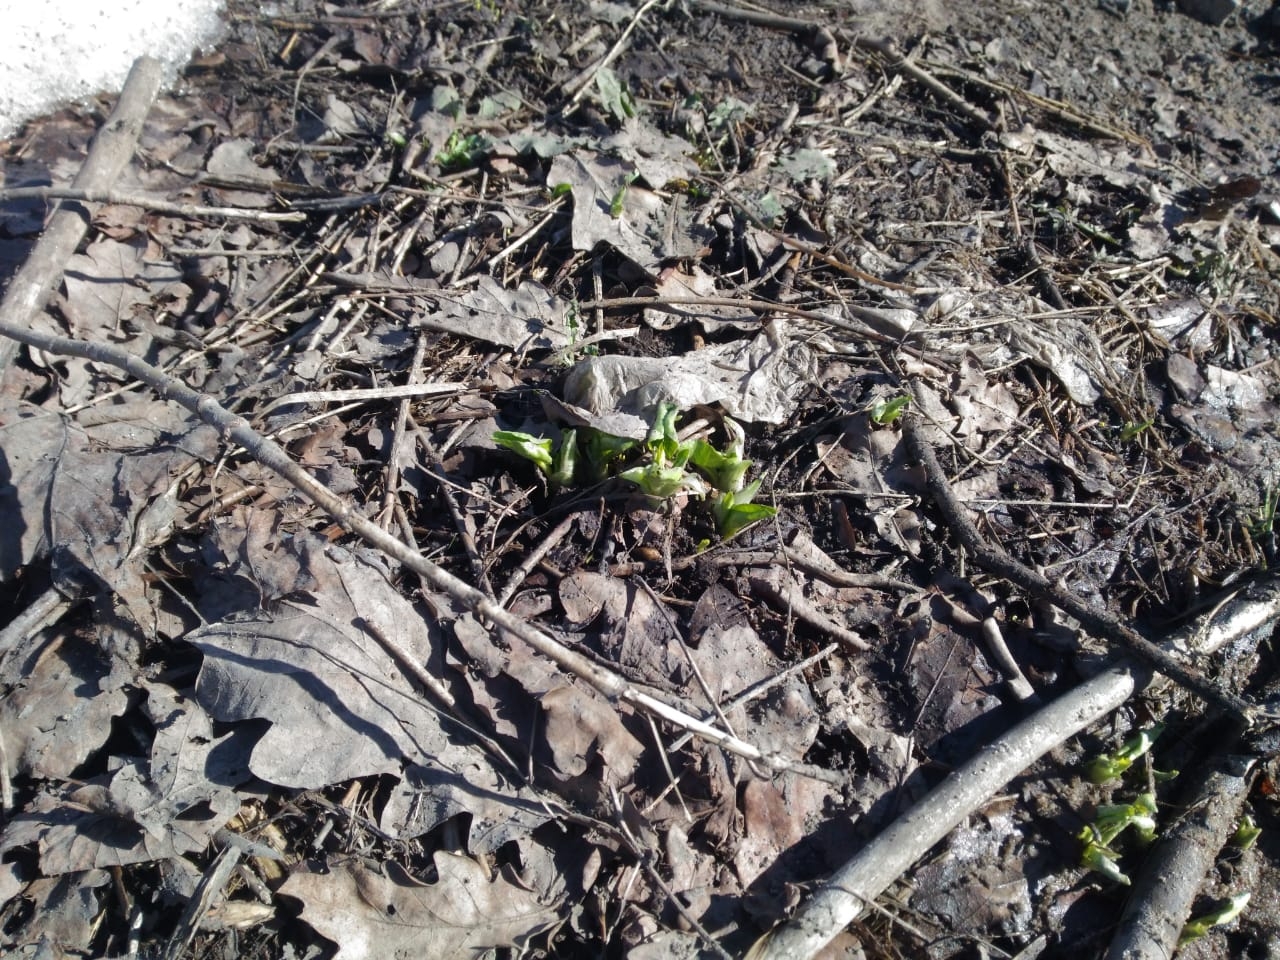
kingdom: Plantae
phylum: Tracheophyta
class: Magnoliopsida
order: Ranunculales
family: Ranunculaceae
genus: Ficaria
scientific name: Ficaria verna
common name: Lesser celandine
